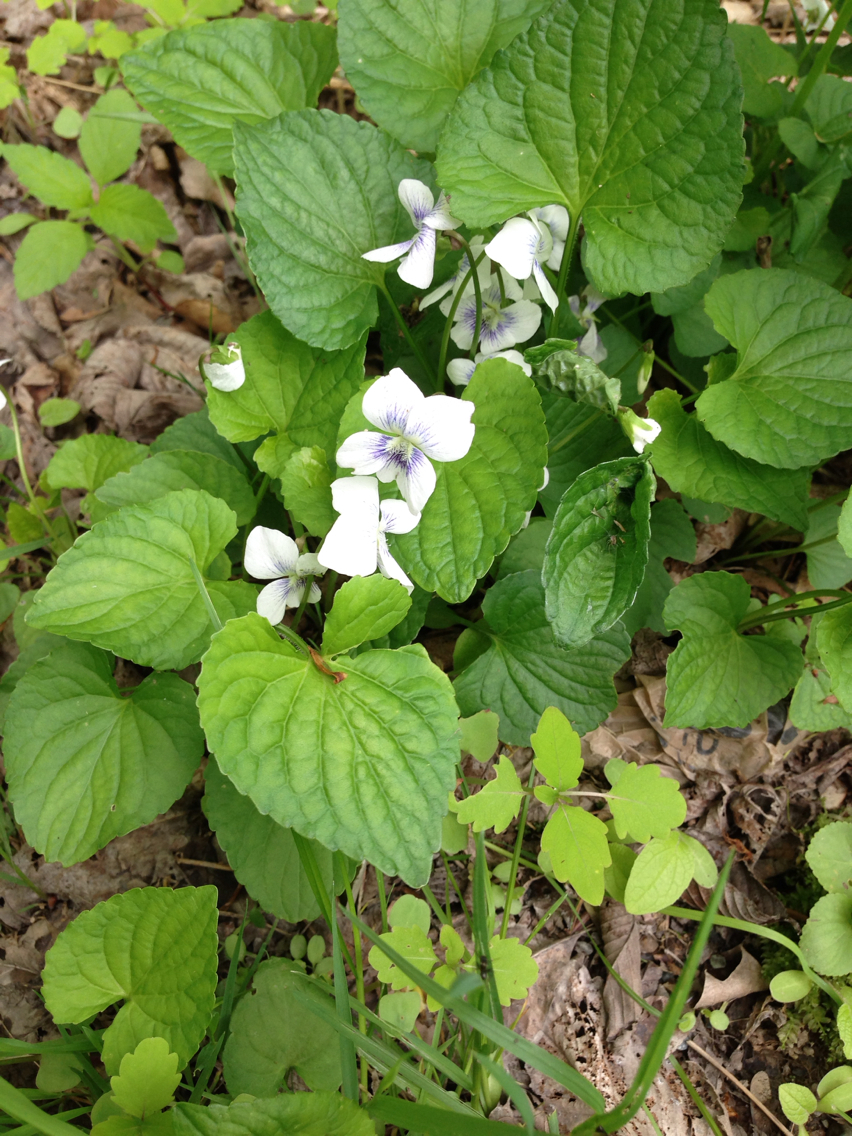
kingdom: Plantae
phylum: Tracheophyta
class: Magnoliopsida
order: Malpighiales
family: Violaceae
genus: Viola
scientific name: Viola sororia
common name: Dooryard violet
